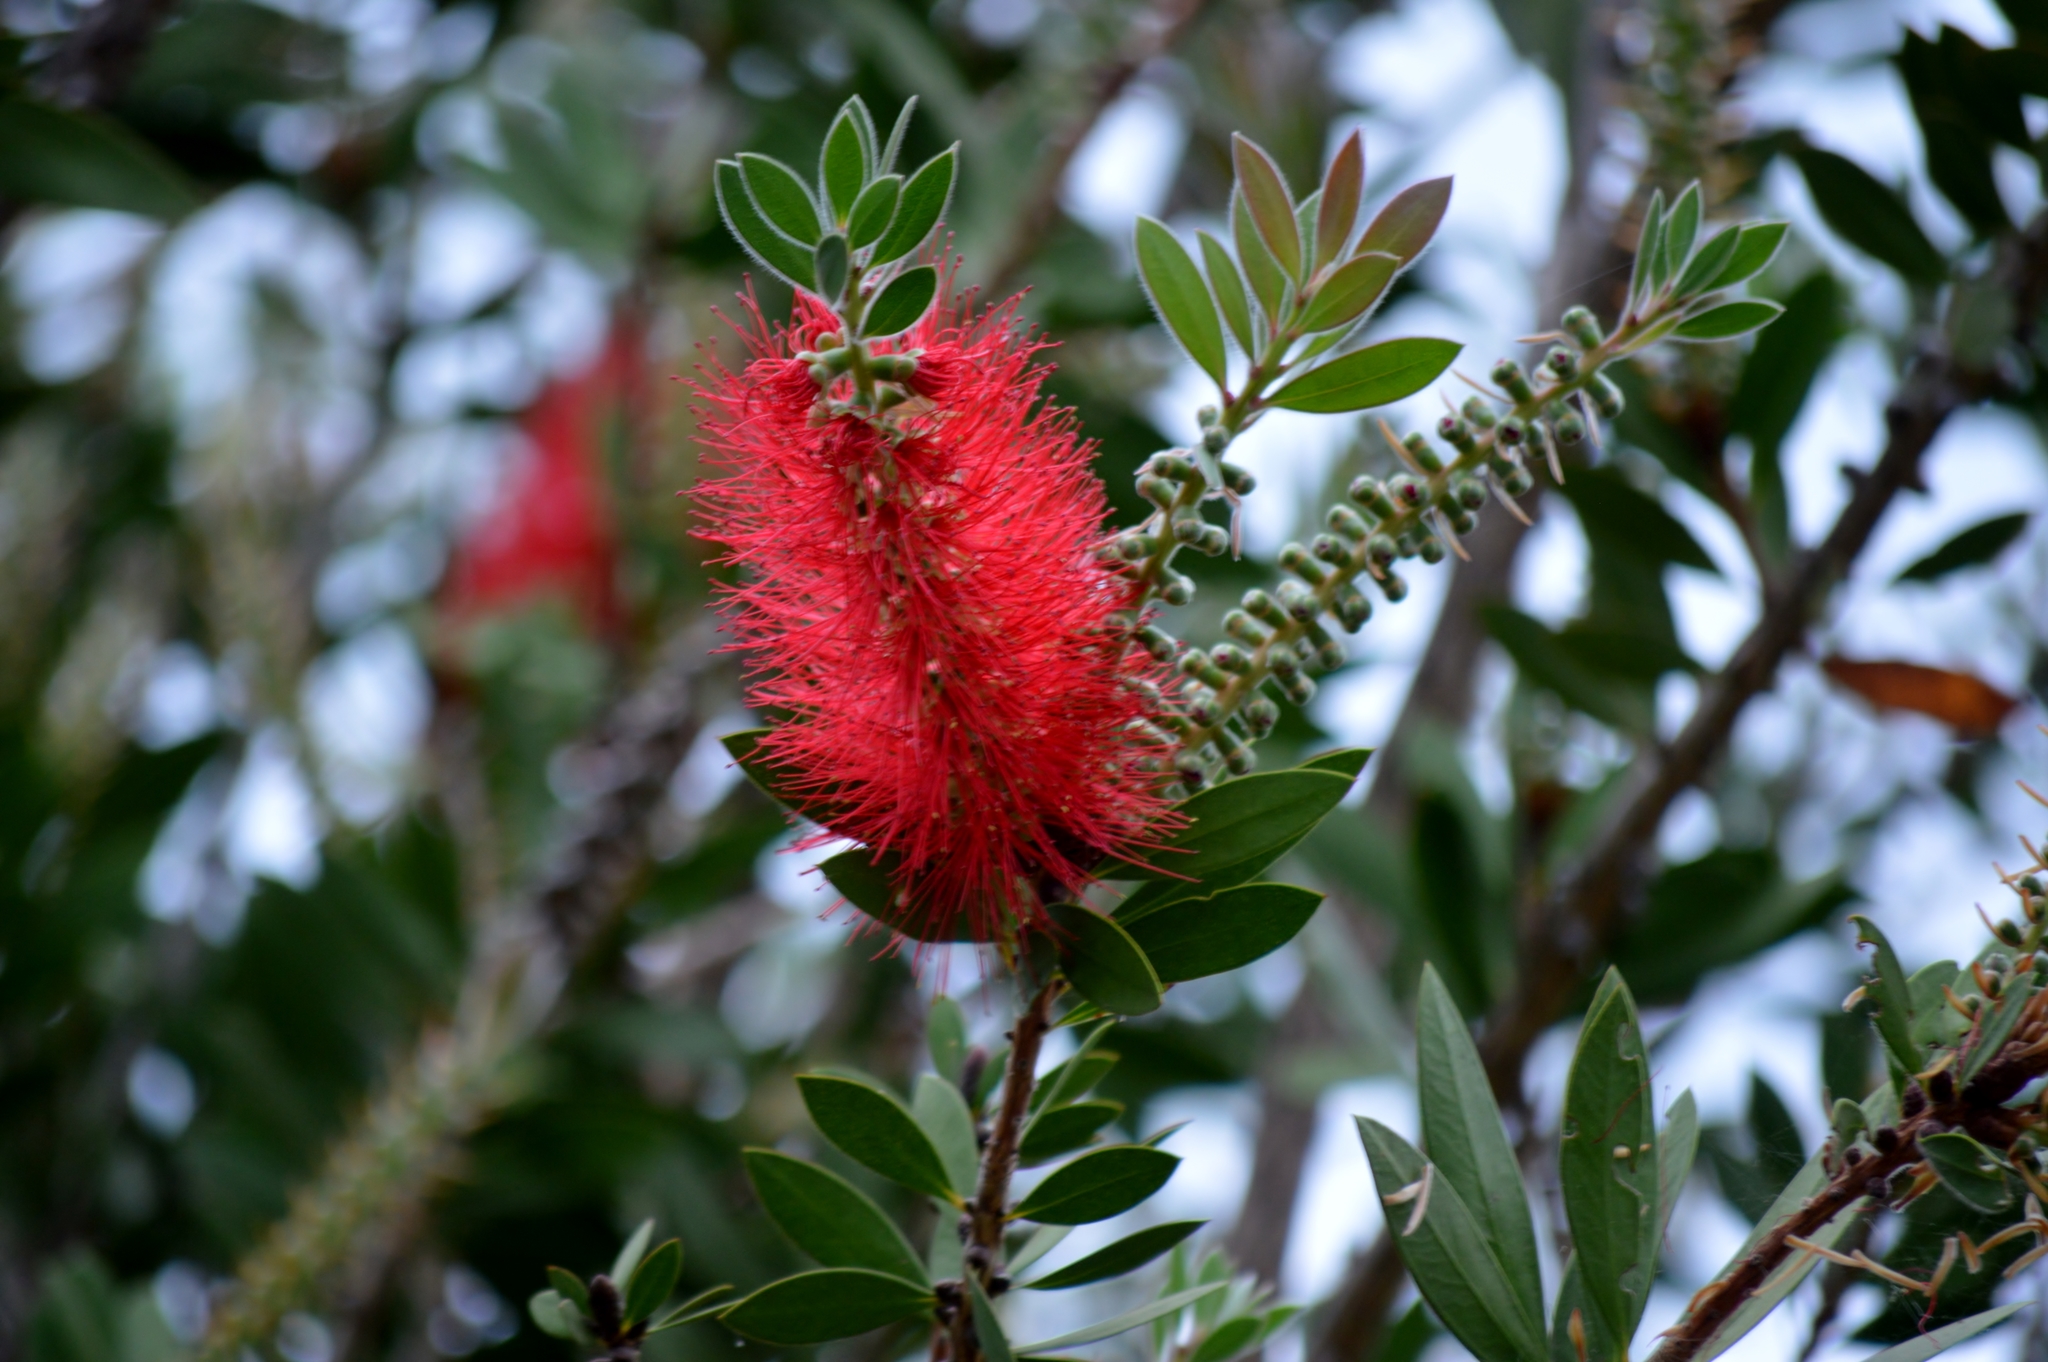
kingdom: Plantae
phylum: Tracheophyta
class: Magnoliopsida
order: Myrtales
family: Myrtaceae
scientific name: Myrtaceae
